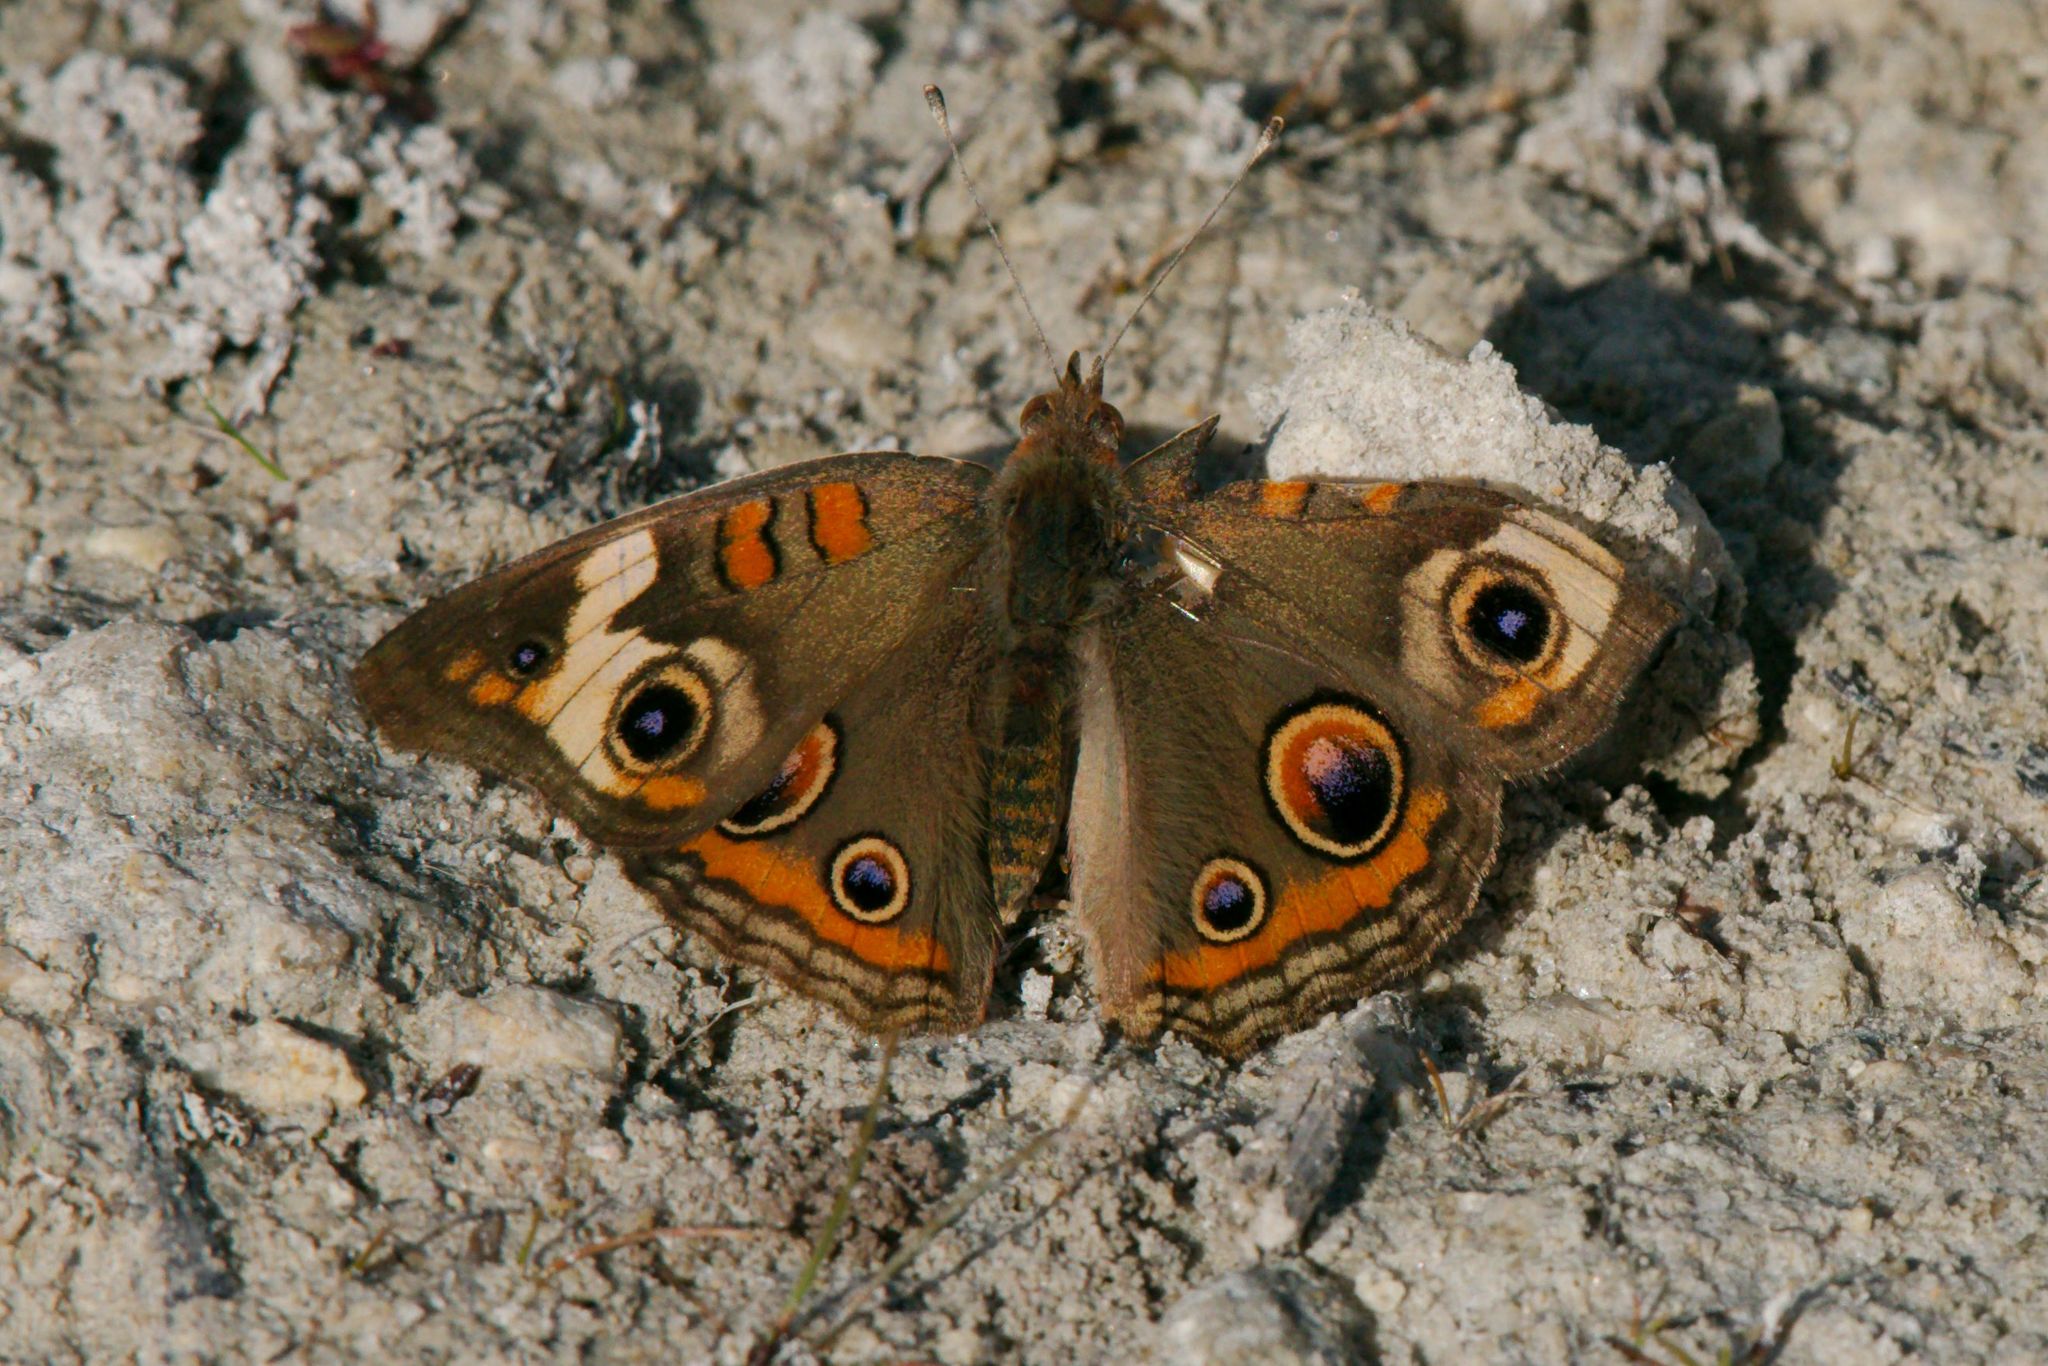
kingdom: Animalia
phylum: Arthropoda
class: Insecta
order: Lepidoptera
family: Nymphalidae
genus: Junonia
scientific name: Junonia coenia
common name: Common buckeye
